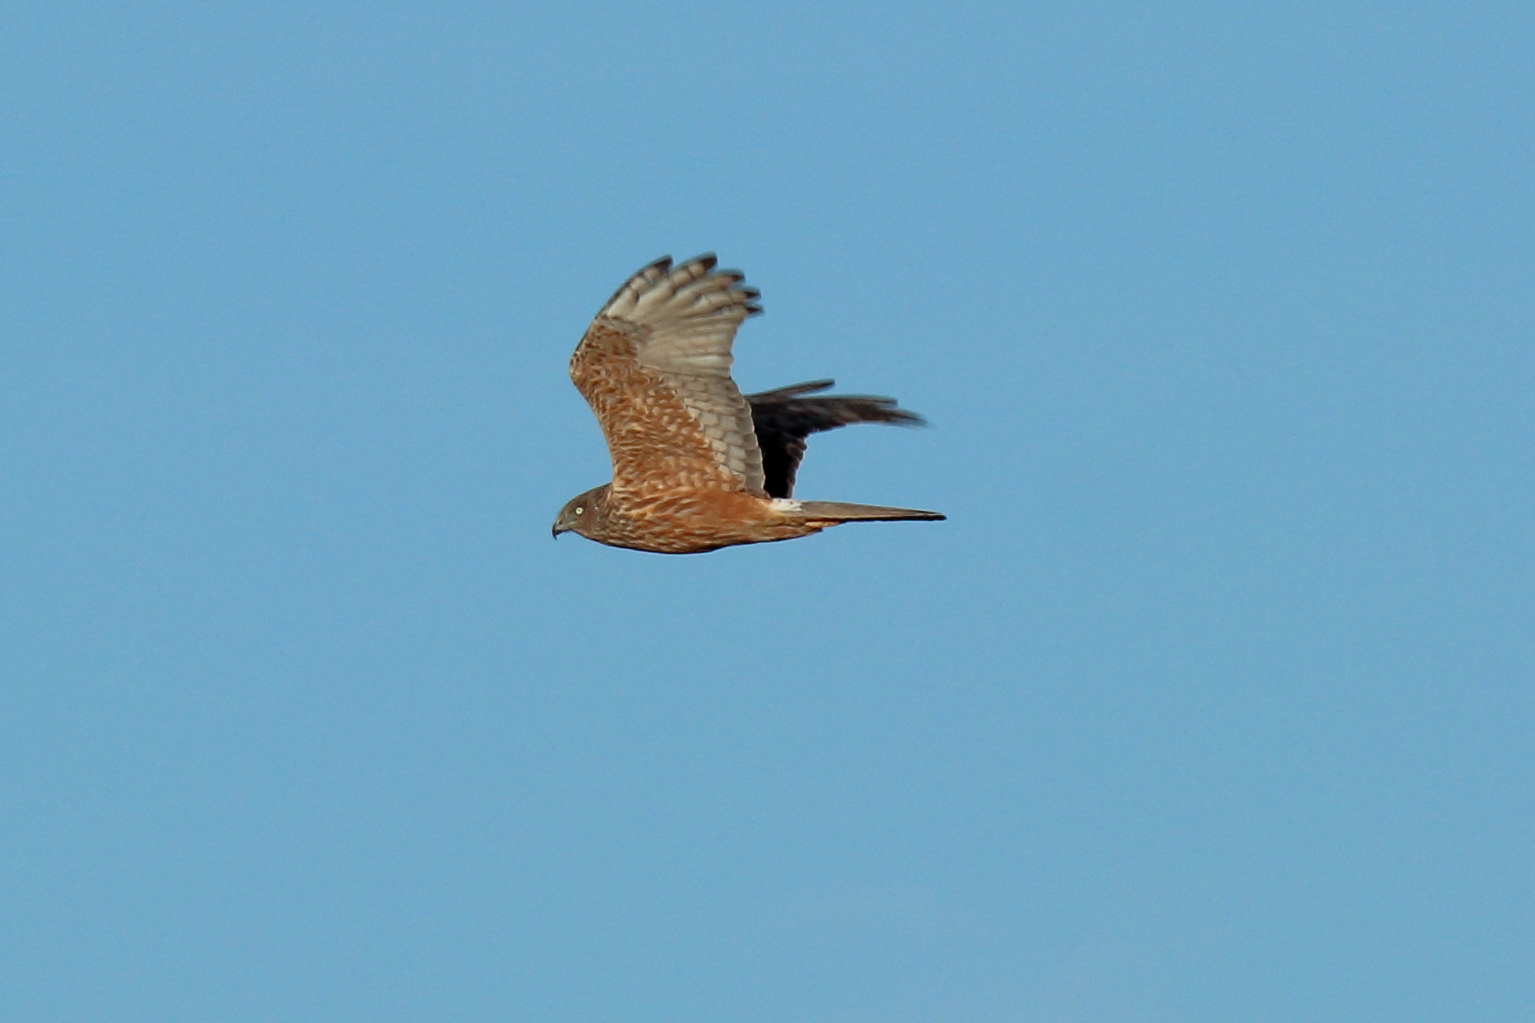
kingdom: Animalia
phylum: Chordata
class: Aves
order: Accipitriformes
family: Accipitridae
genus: Circus
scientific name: Circus approximans
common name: Swamp harrier
